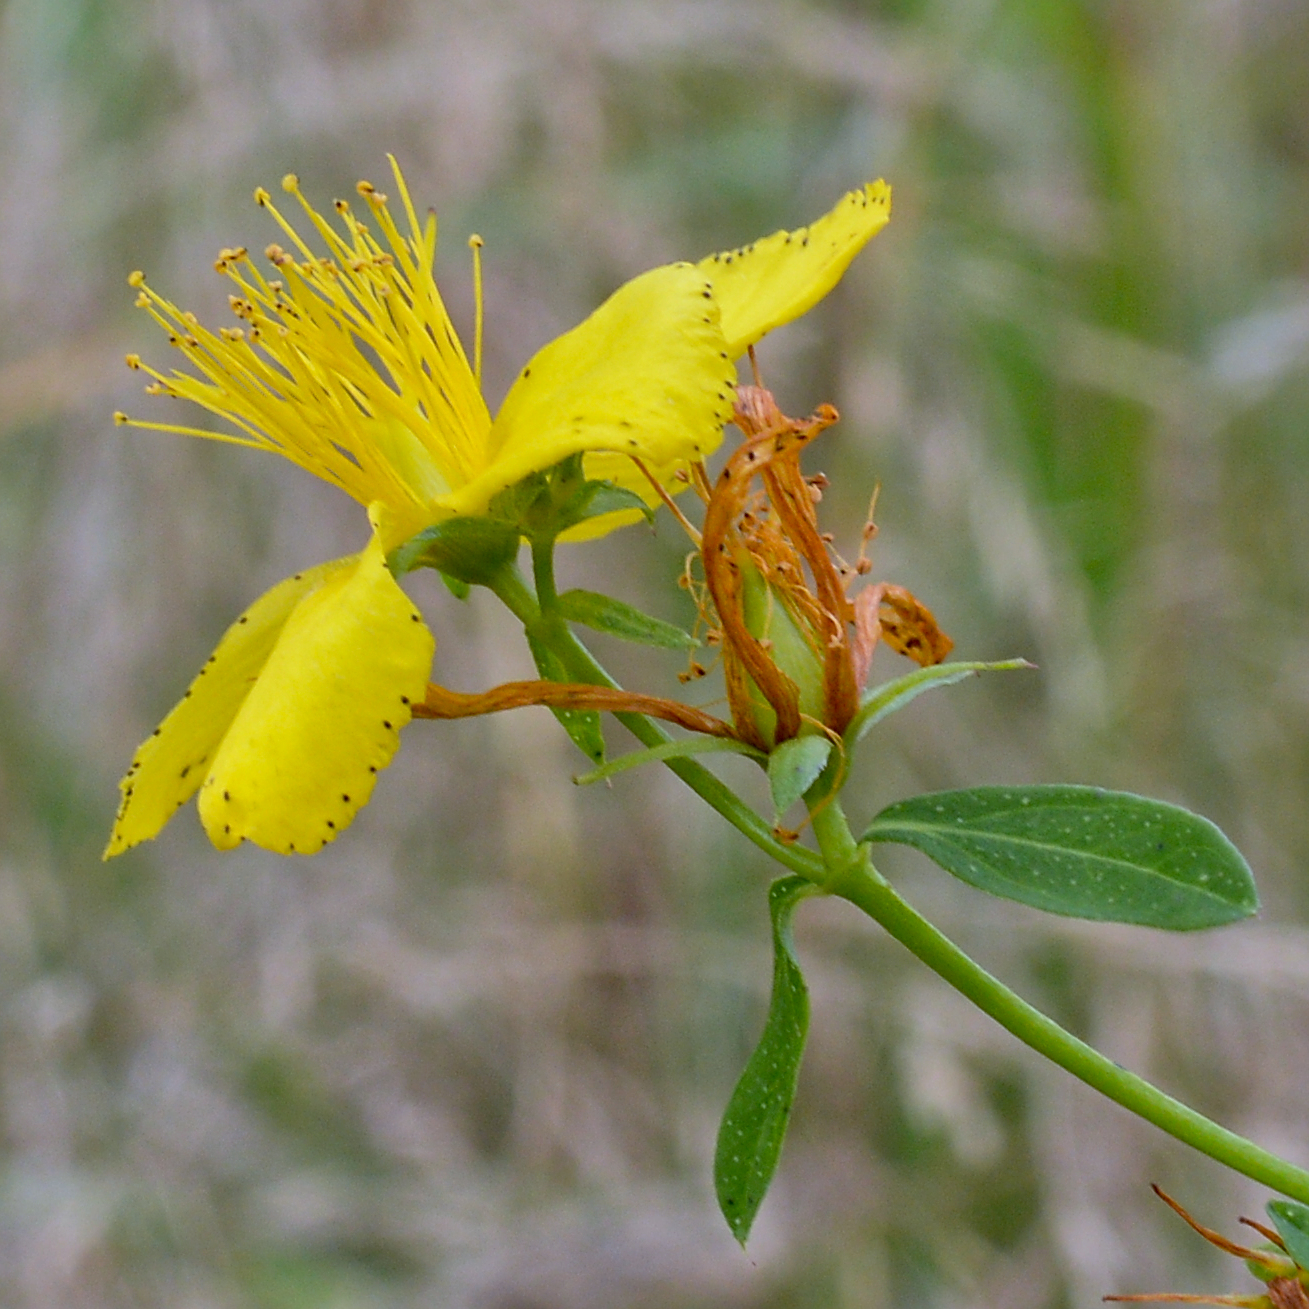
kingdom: Plantae
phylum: Tracheophyta
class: Magnoliopsida
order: Malpighiales
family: Hypericaceae
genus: Hypericum
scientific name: Hypericum perforatum
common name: Common st. johnswort
